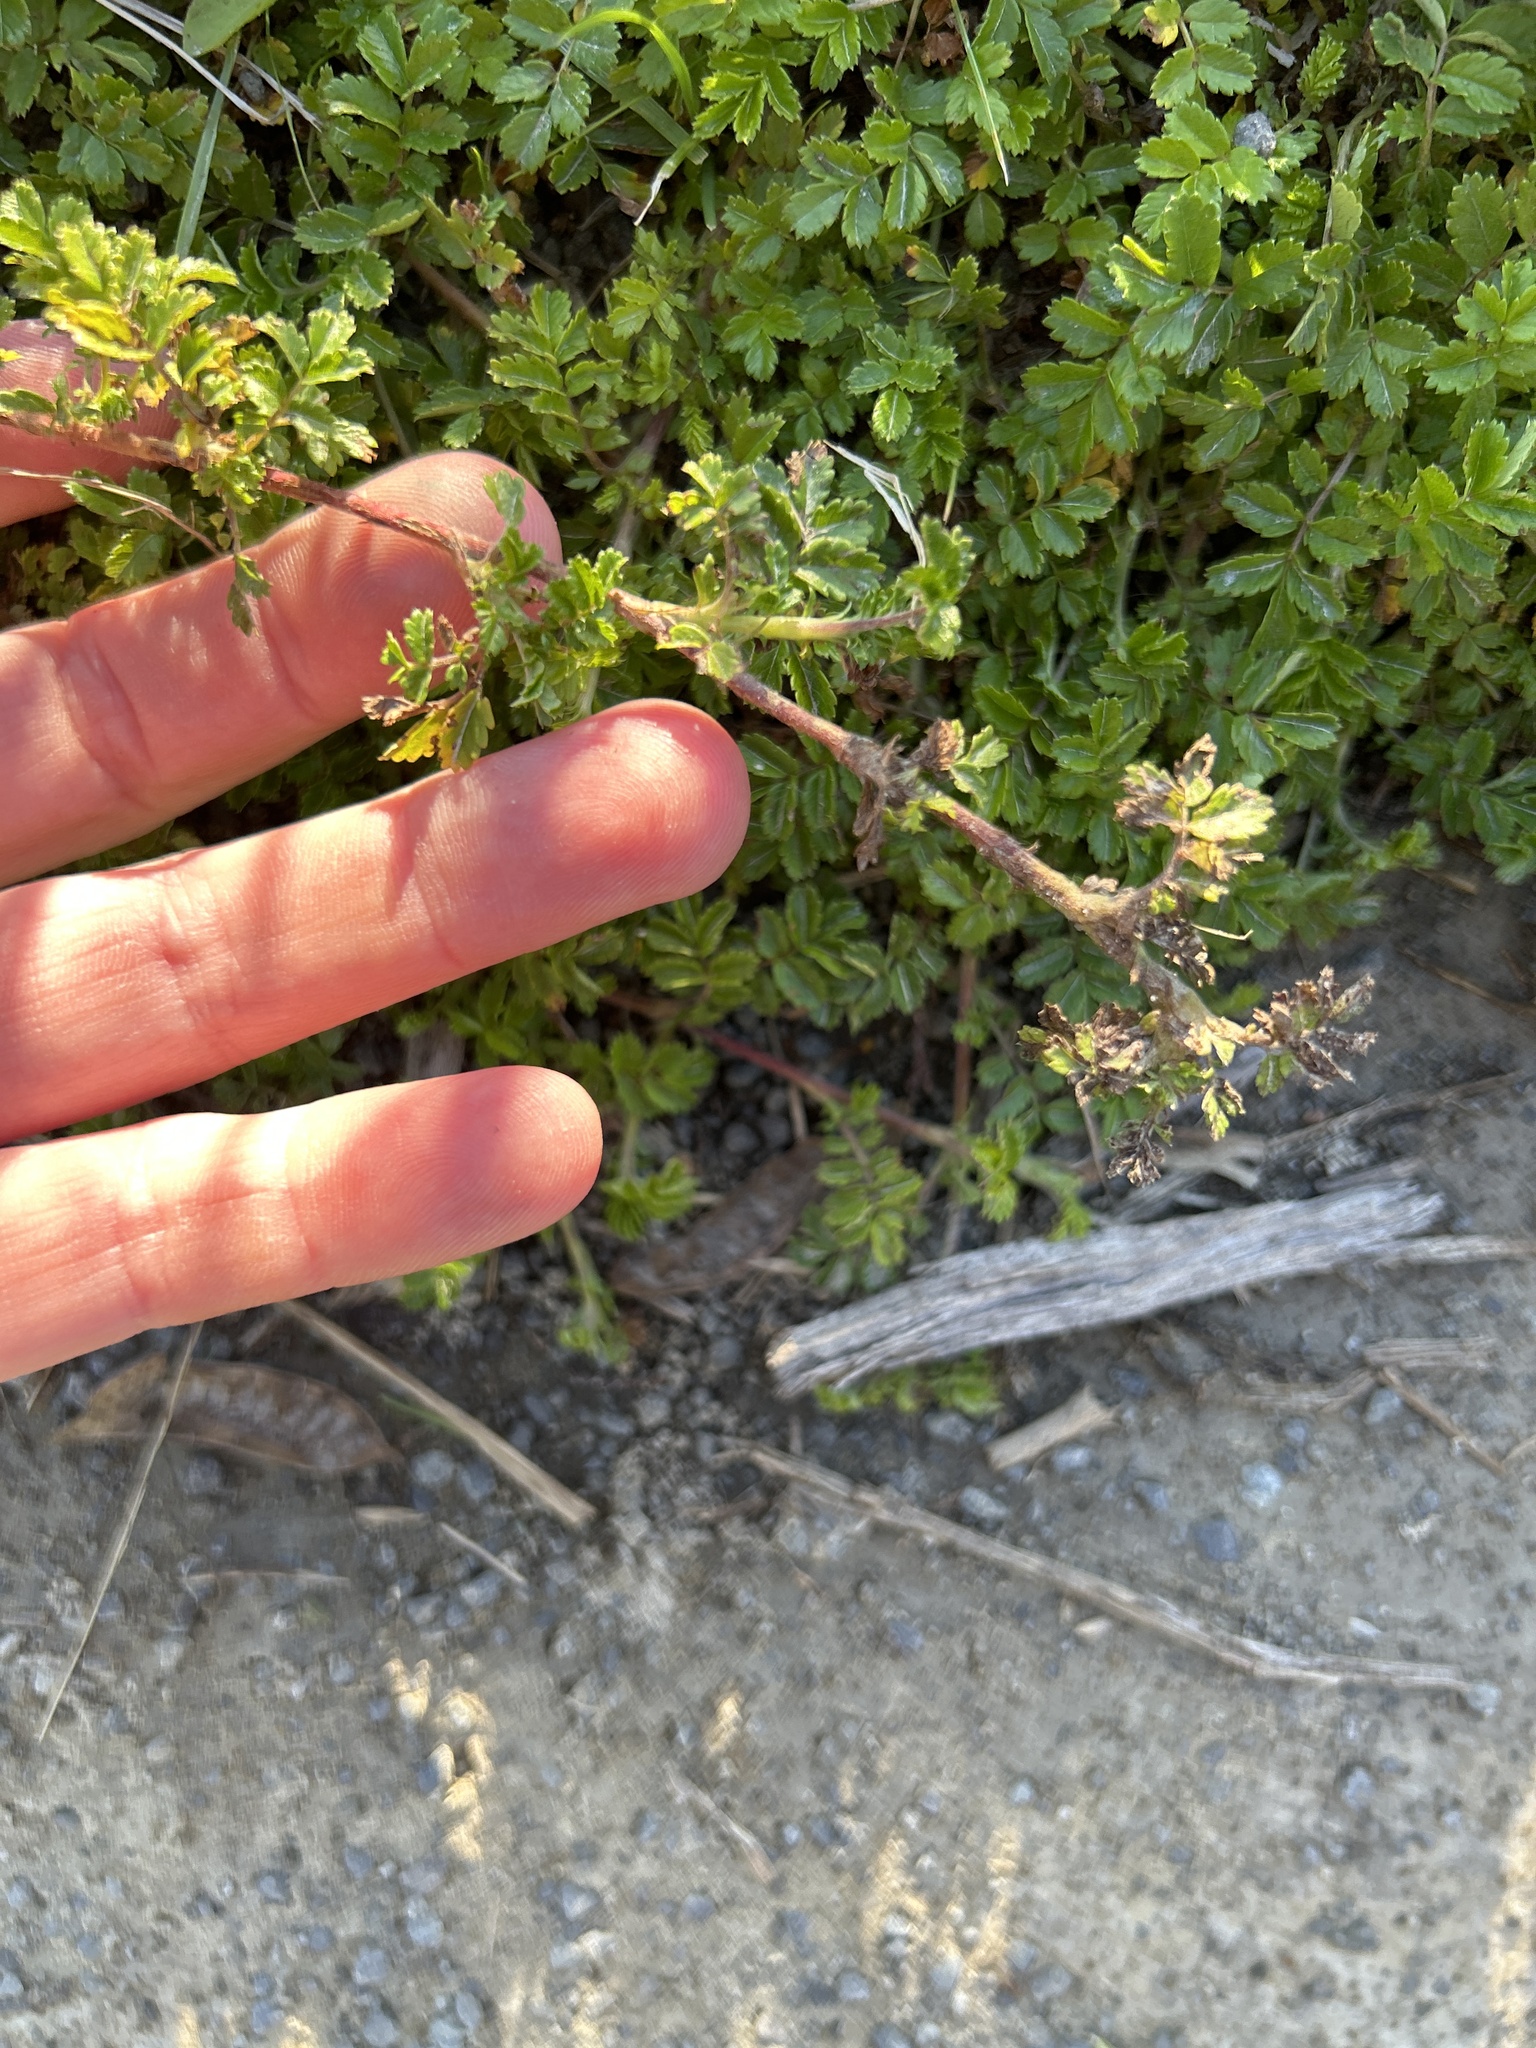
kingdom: Plantae
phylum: Tracheophyta
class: Magnoliopsida
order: Rosales
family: Rosaceae
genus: Acaena
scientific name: Acaena novae-zelandiae
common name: Pirri-pirri-bur
